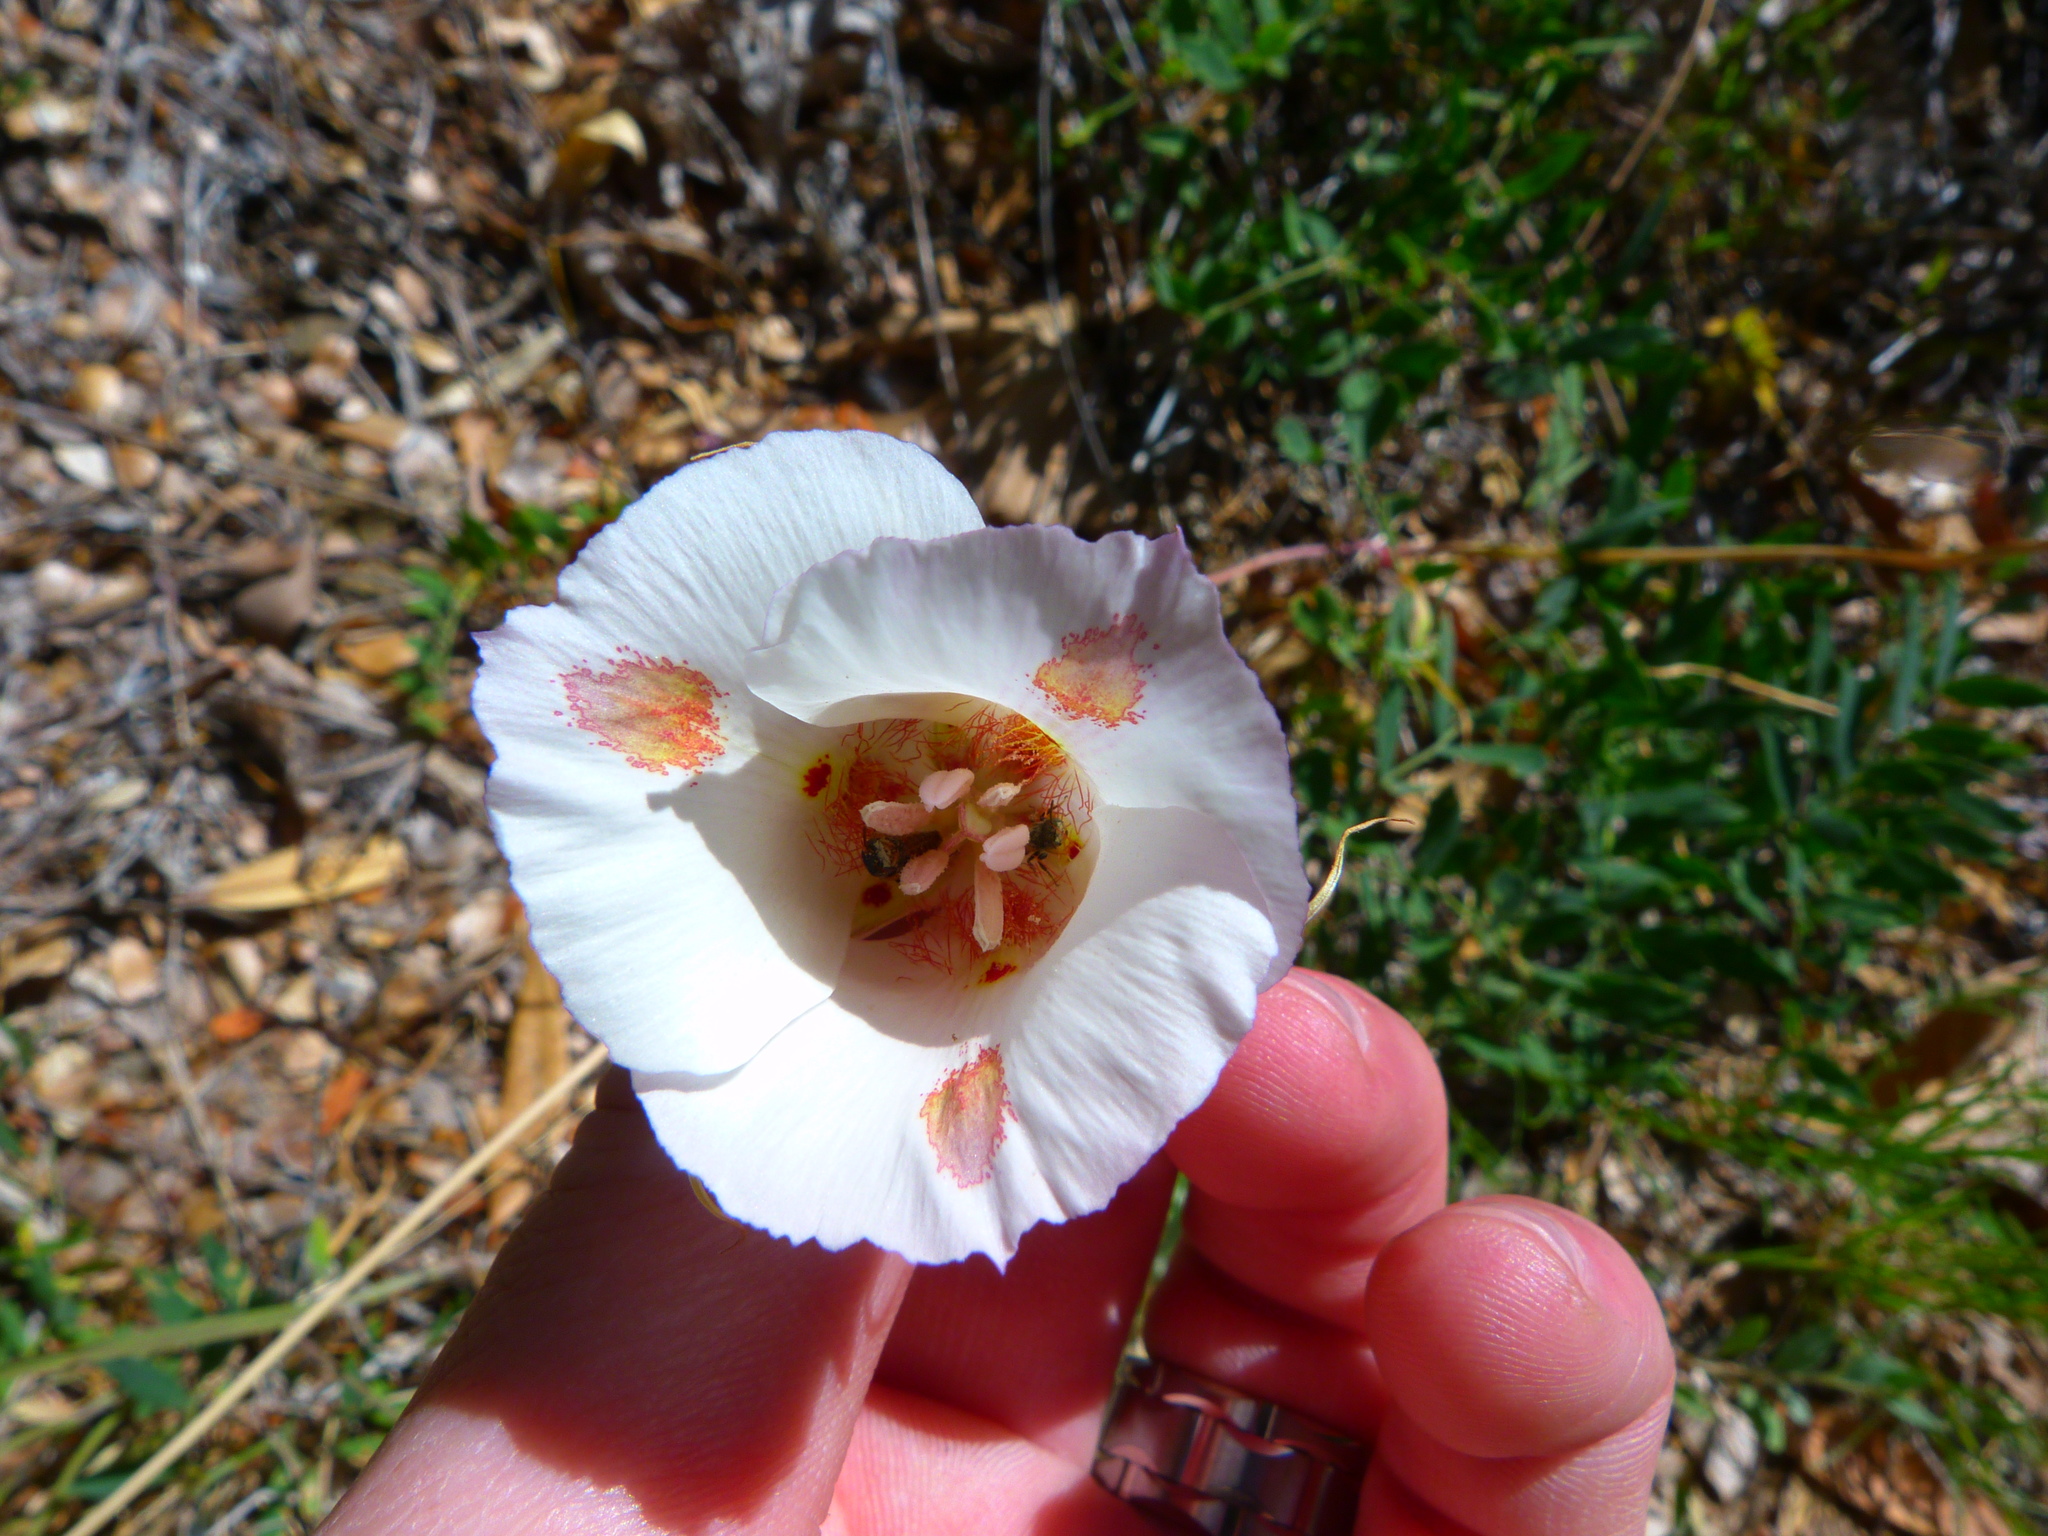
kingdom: Plantae
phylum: Tracheophyta
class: Liliopsida
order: Liliales
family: Liliaceae
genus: Calochortus
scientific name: Calochortus venustus
